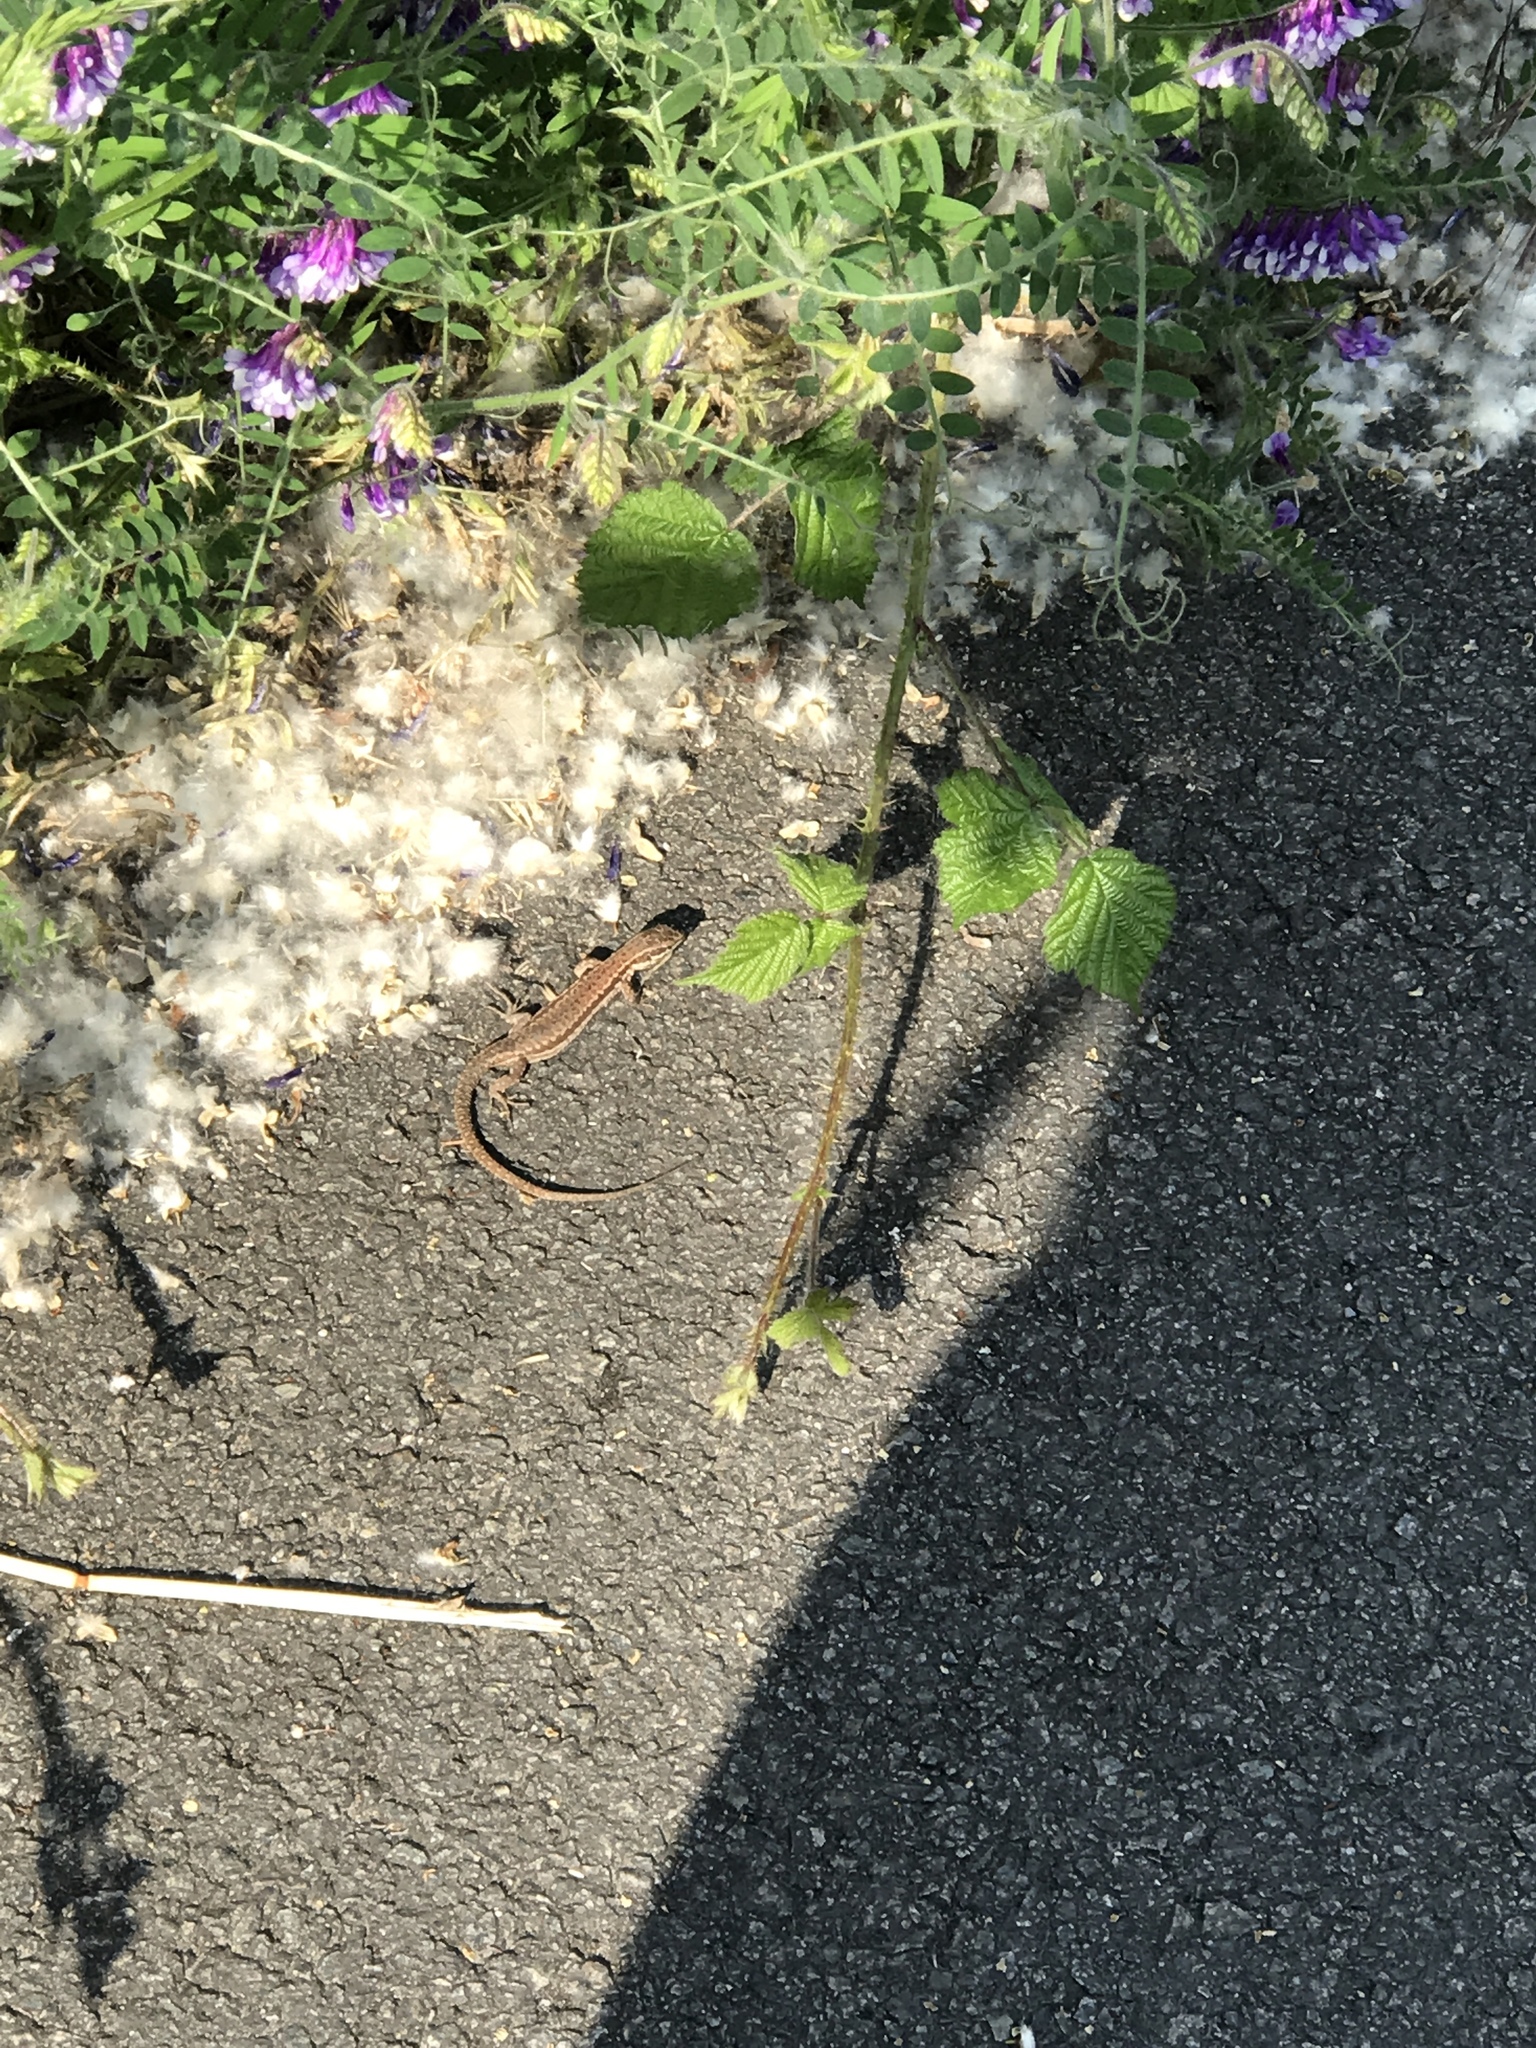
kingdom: Animalia
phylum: Chordata
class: Squamata
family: Lacertidae
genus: Podarcis
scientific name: Podarcis muralis
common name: Common wall lizard
